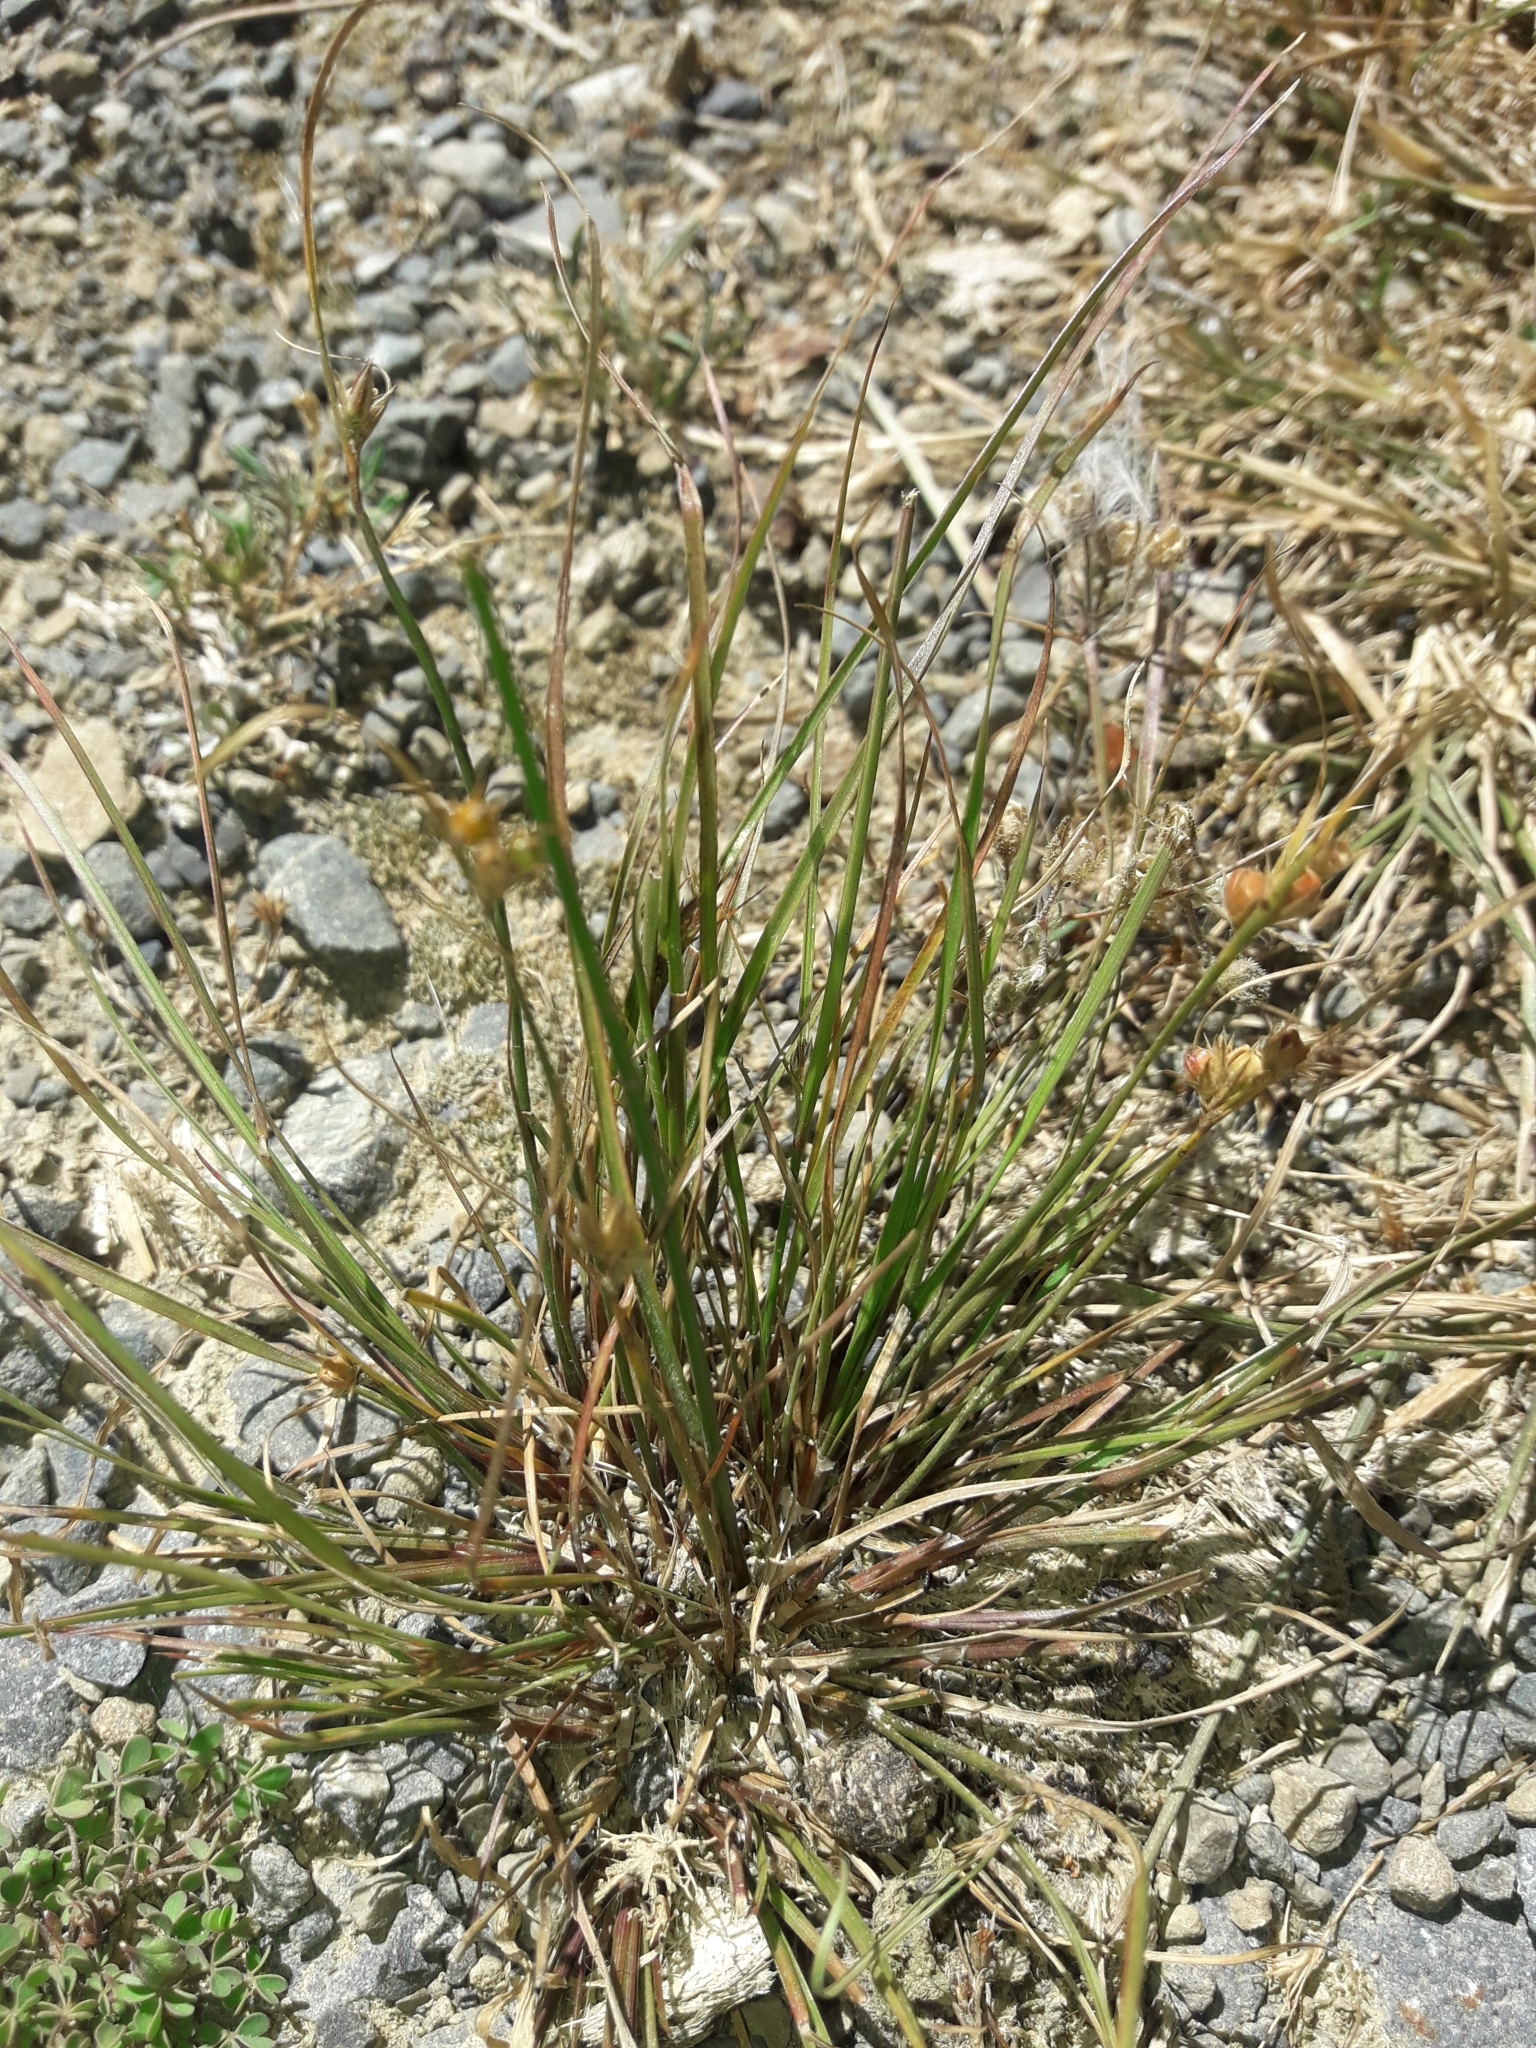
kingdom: Plantae
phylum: Tracheophyta
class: Liliopsida
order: Poales
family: Juncaceae
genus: Juncus
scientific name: Juncus tenuis
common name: Slender rush
